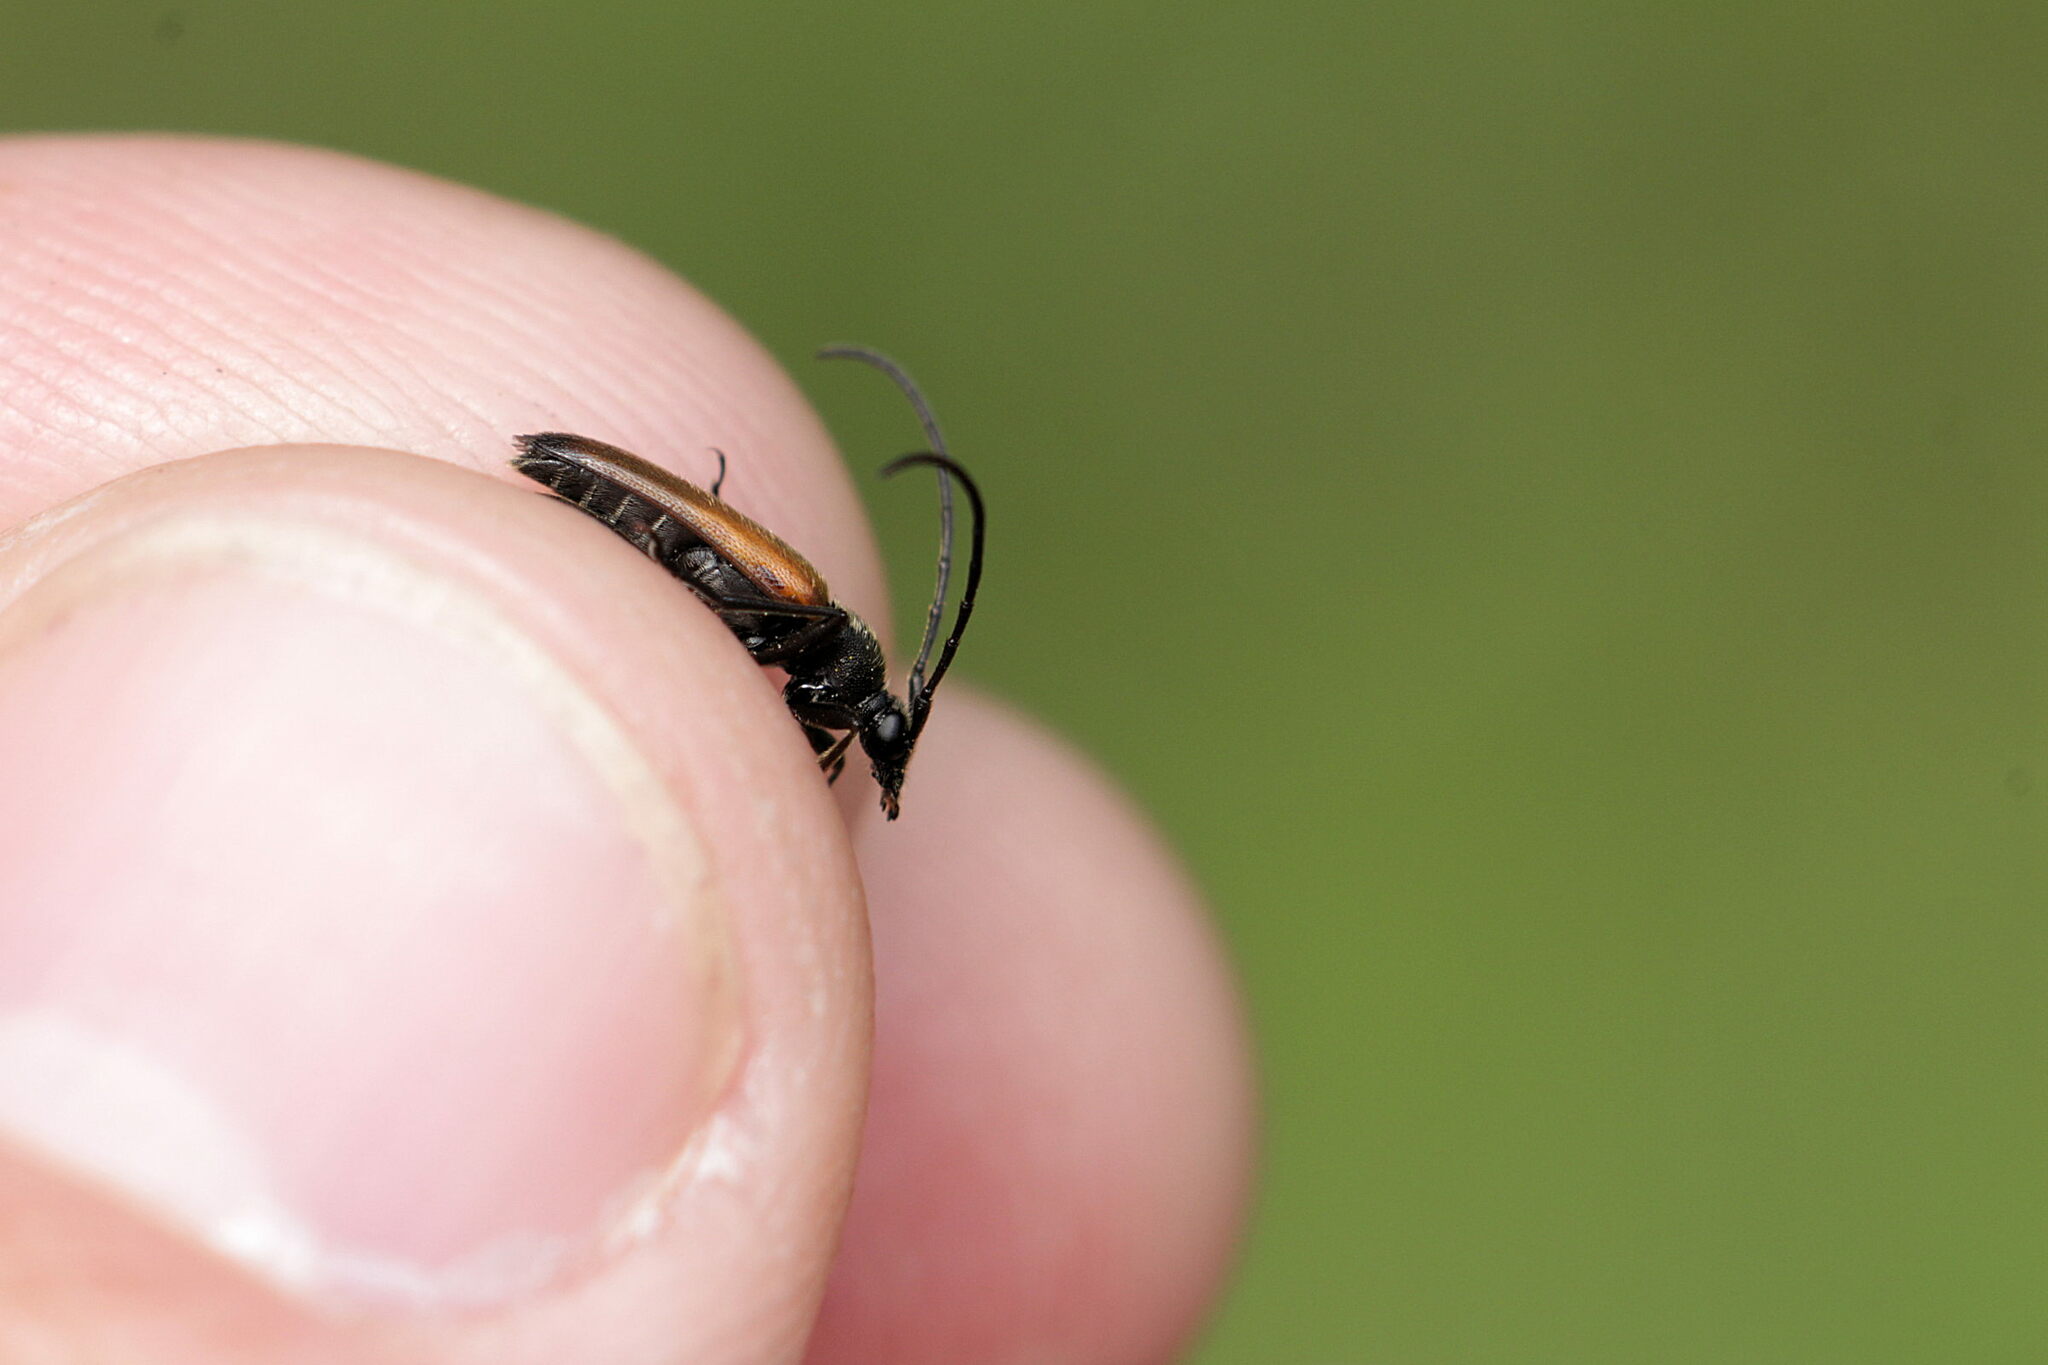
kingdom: Animalia
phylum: Arthropoda
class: Insecta
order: Coleoptera
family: Cerambycidae
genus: Stenurella
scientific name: Stenurella melanura
